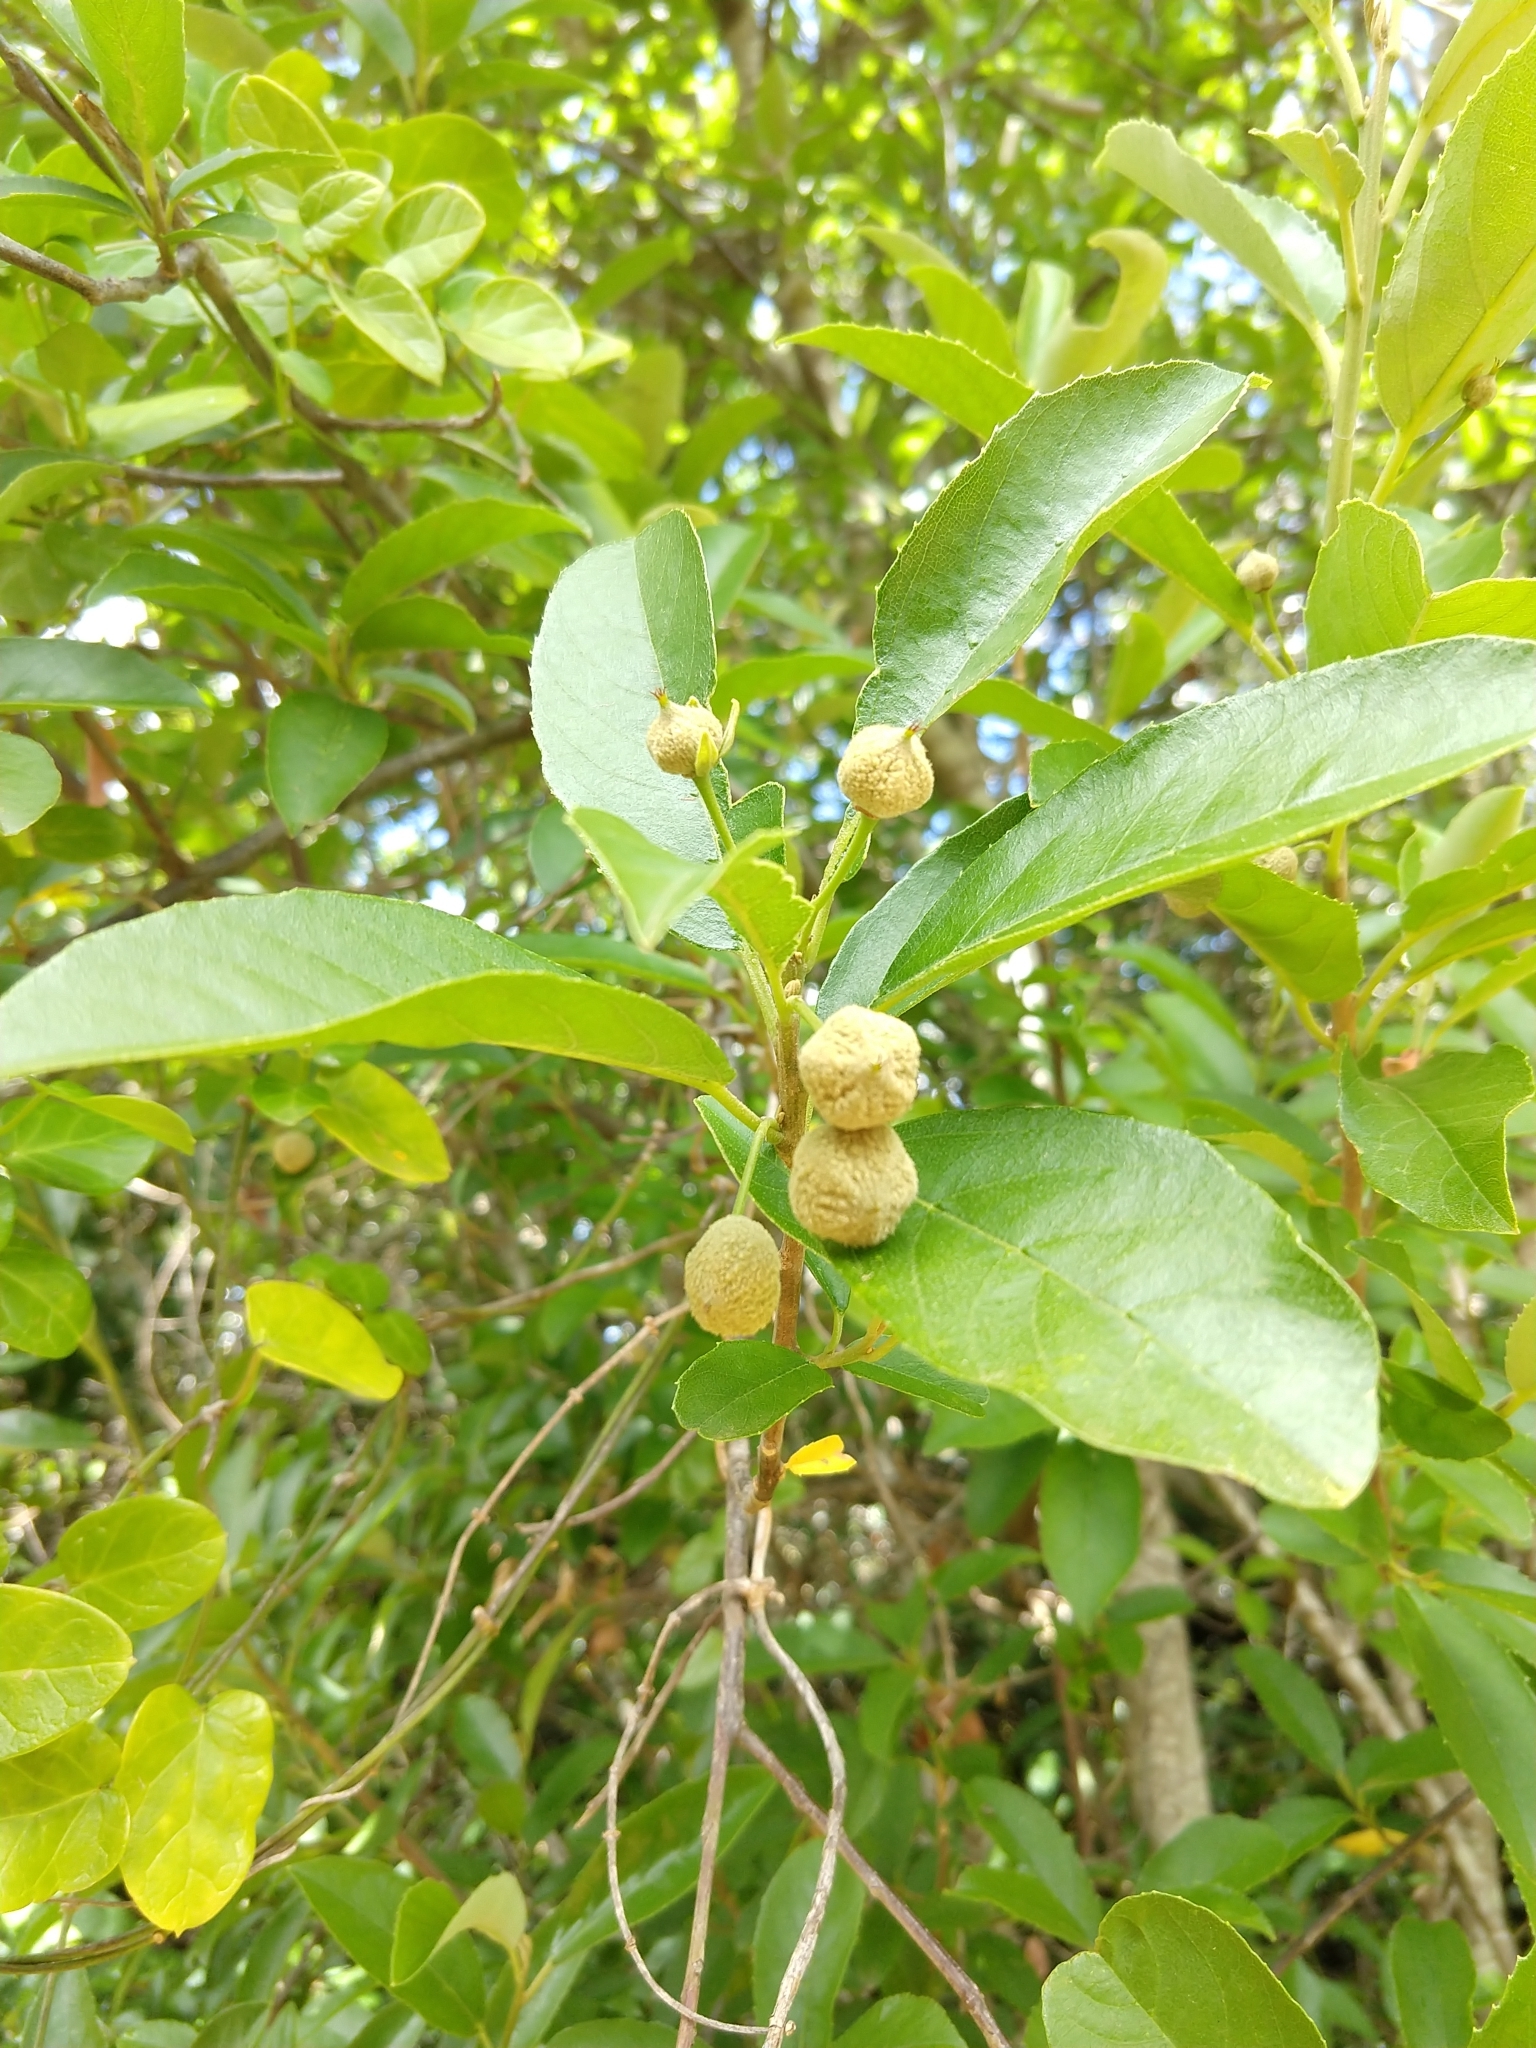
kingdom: Plantae
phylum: Tracheophyta
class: Magnoliopsida
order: Malpighiales
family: Achariaceae
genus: Kiggelaria
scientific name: Kiggelaria africana
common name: Wild peach
